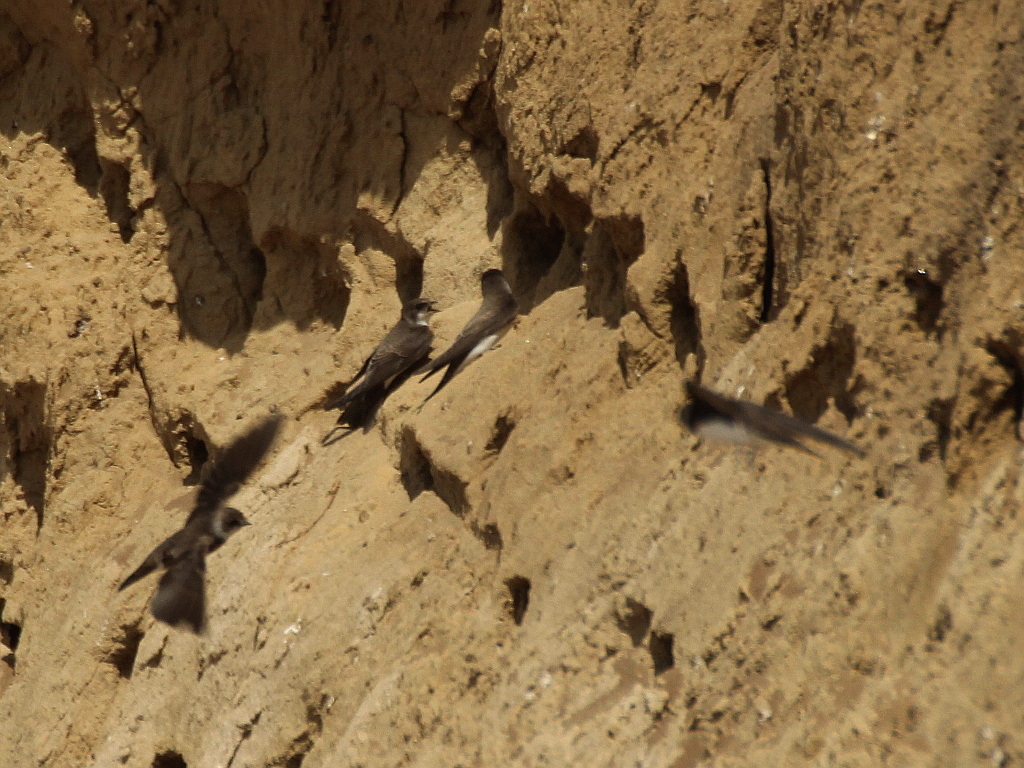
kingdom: Animalia
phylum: Chordata
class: Aves
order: Passeriformes
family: Hirundinidae
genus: Riparia
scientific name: Riparia riparia
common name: Sand martin
